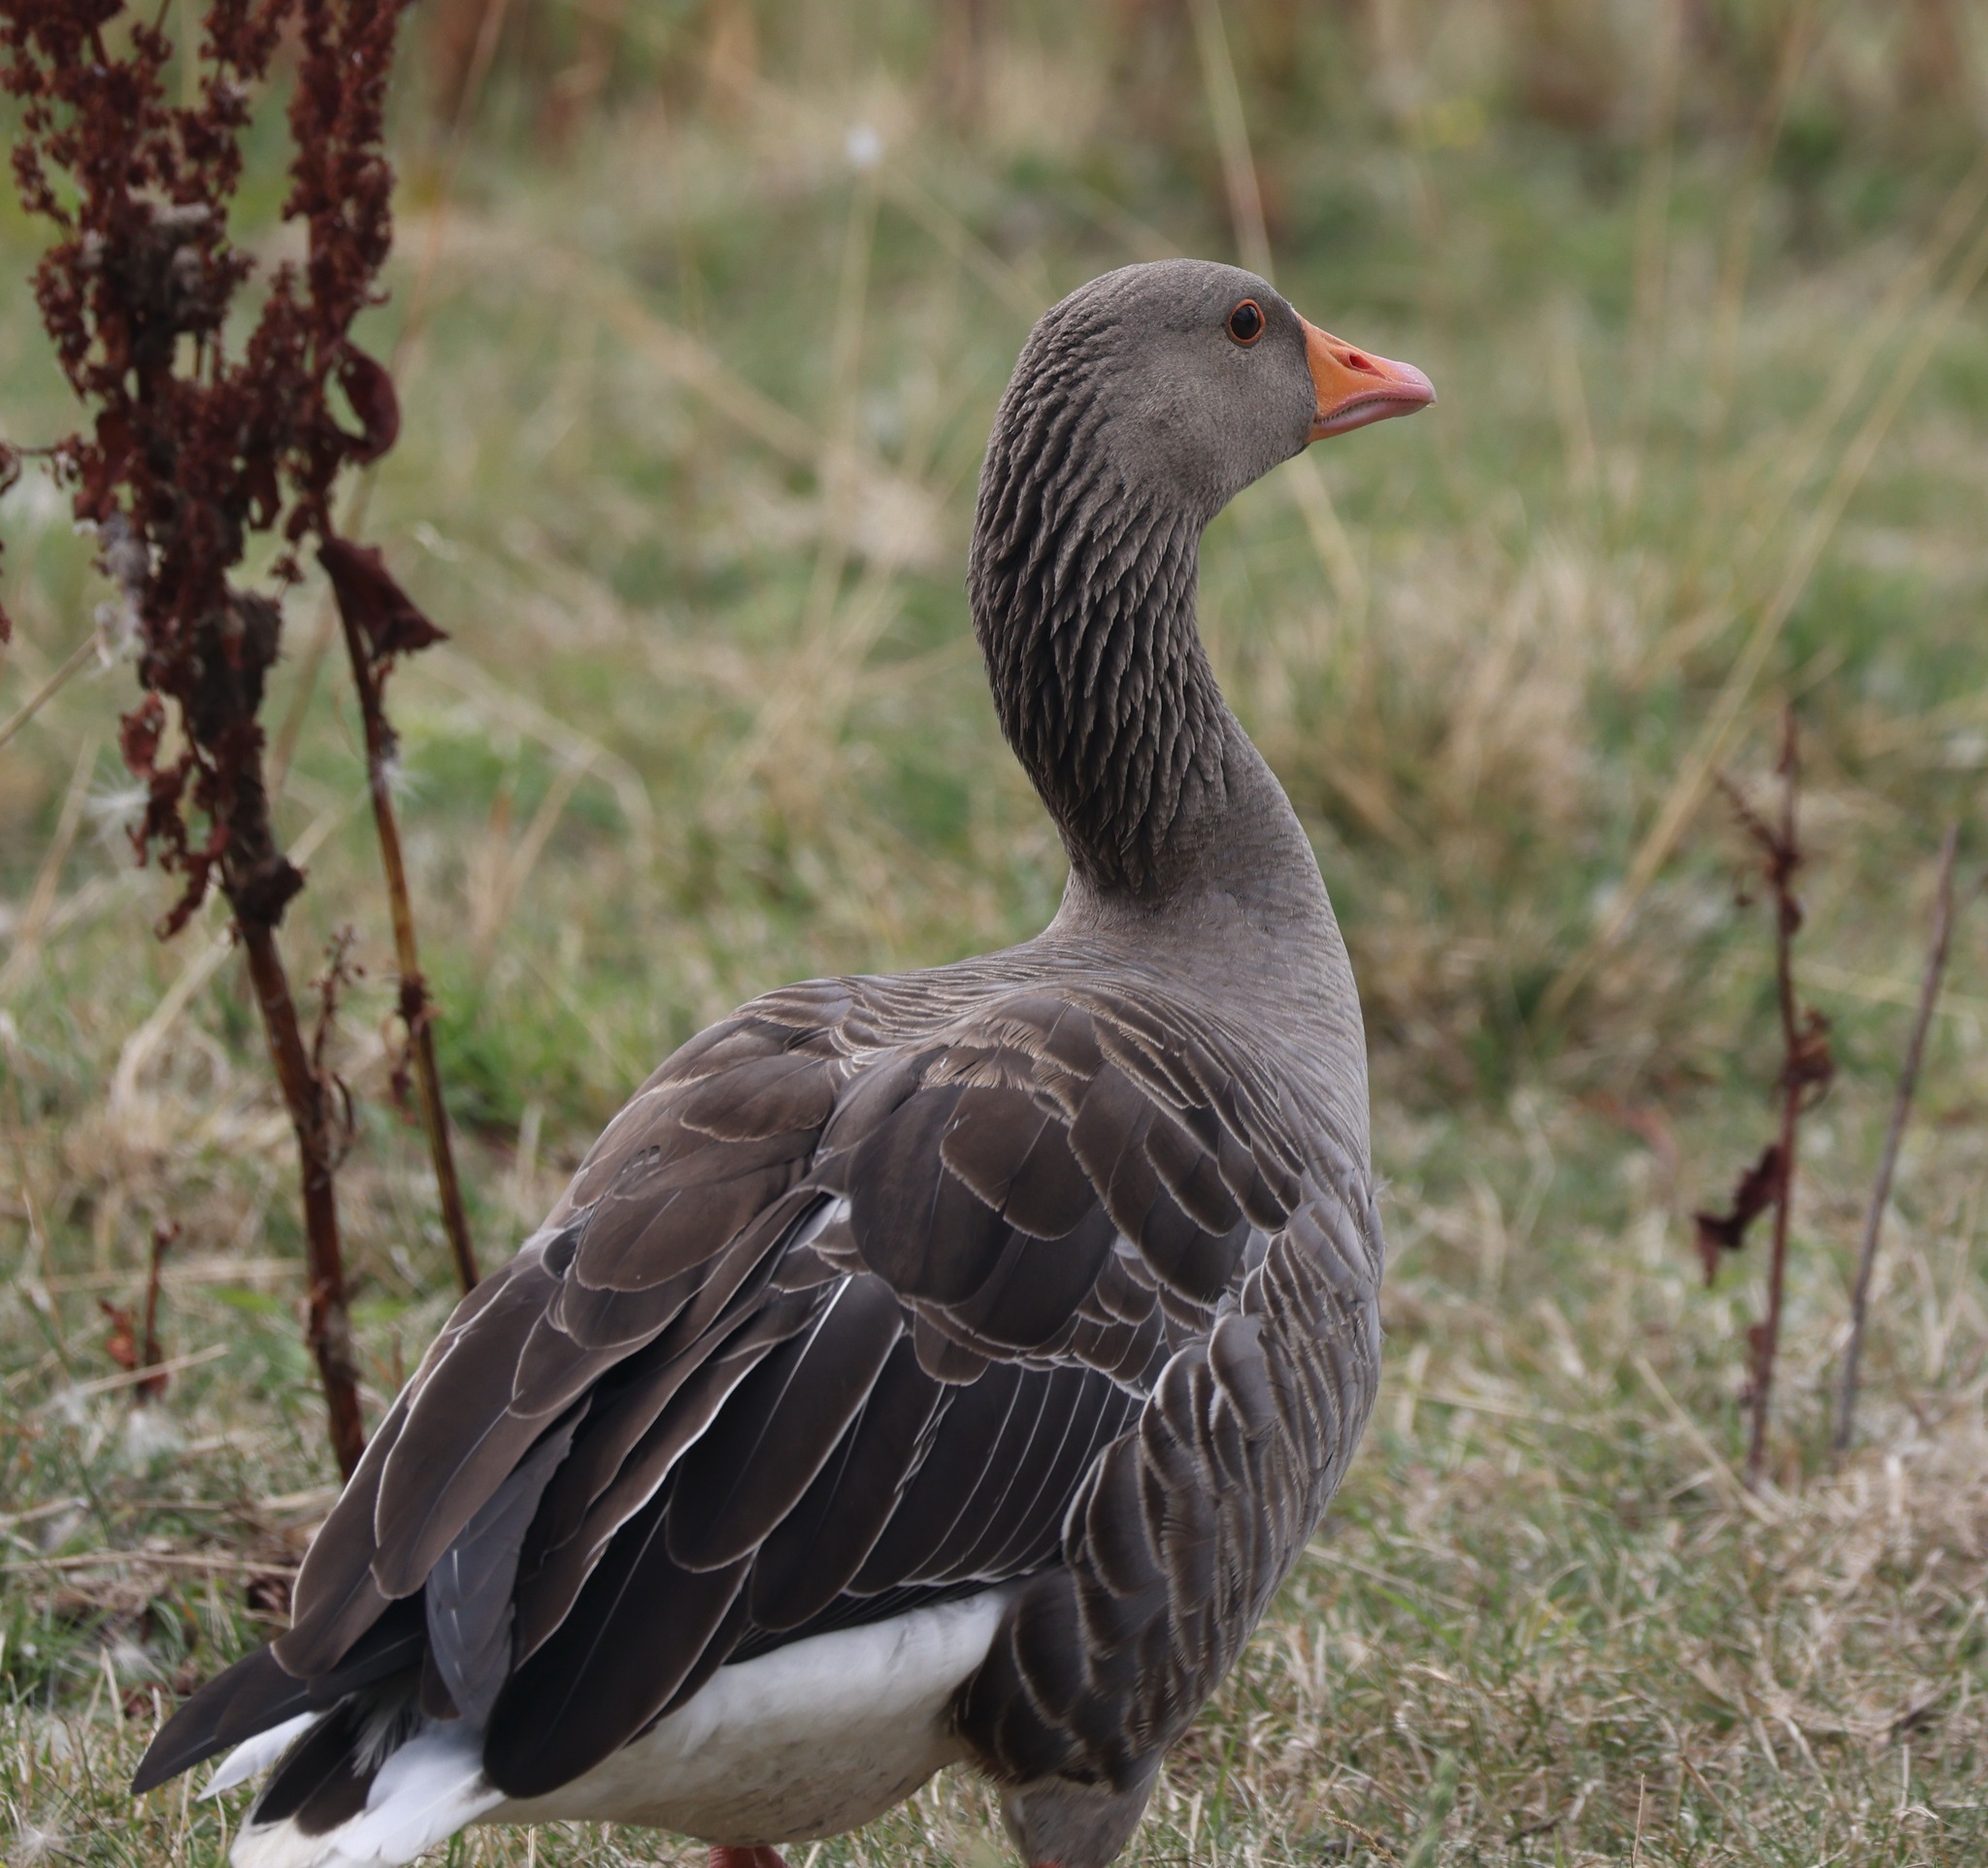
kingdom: Animalia
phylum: Chordata
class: Aves
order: Anseriformes
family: Anatidae
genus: Anser
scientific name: Anser anser
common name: Greylag goose
